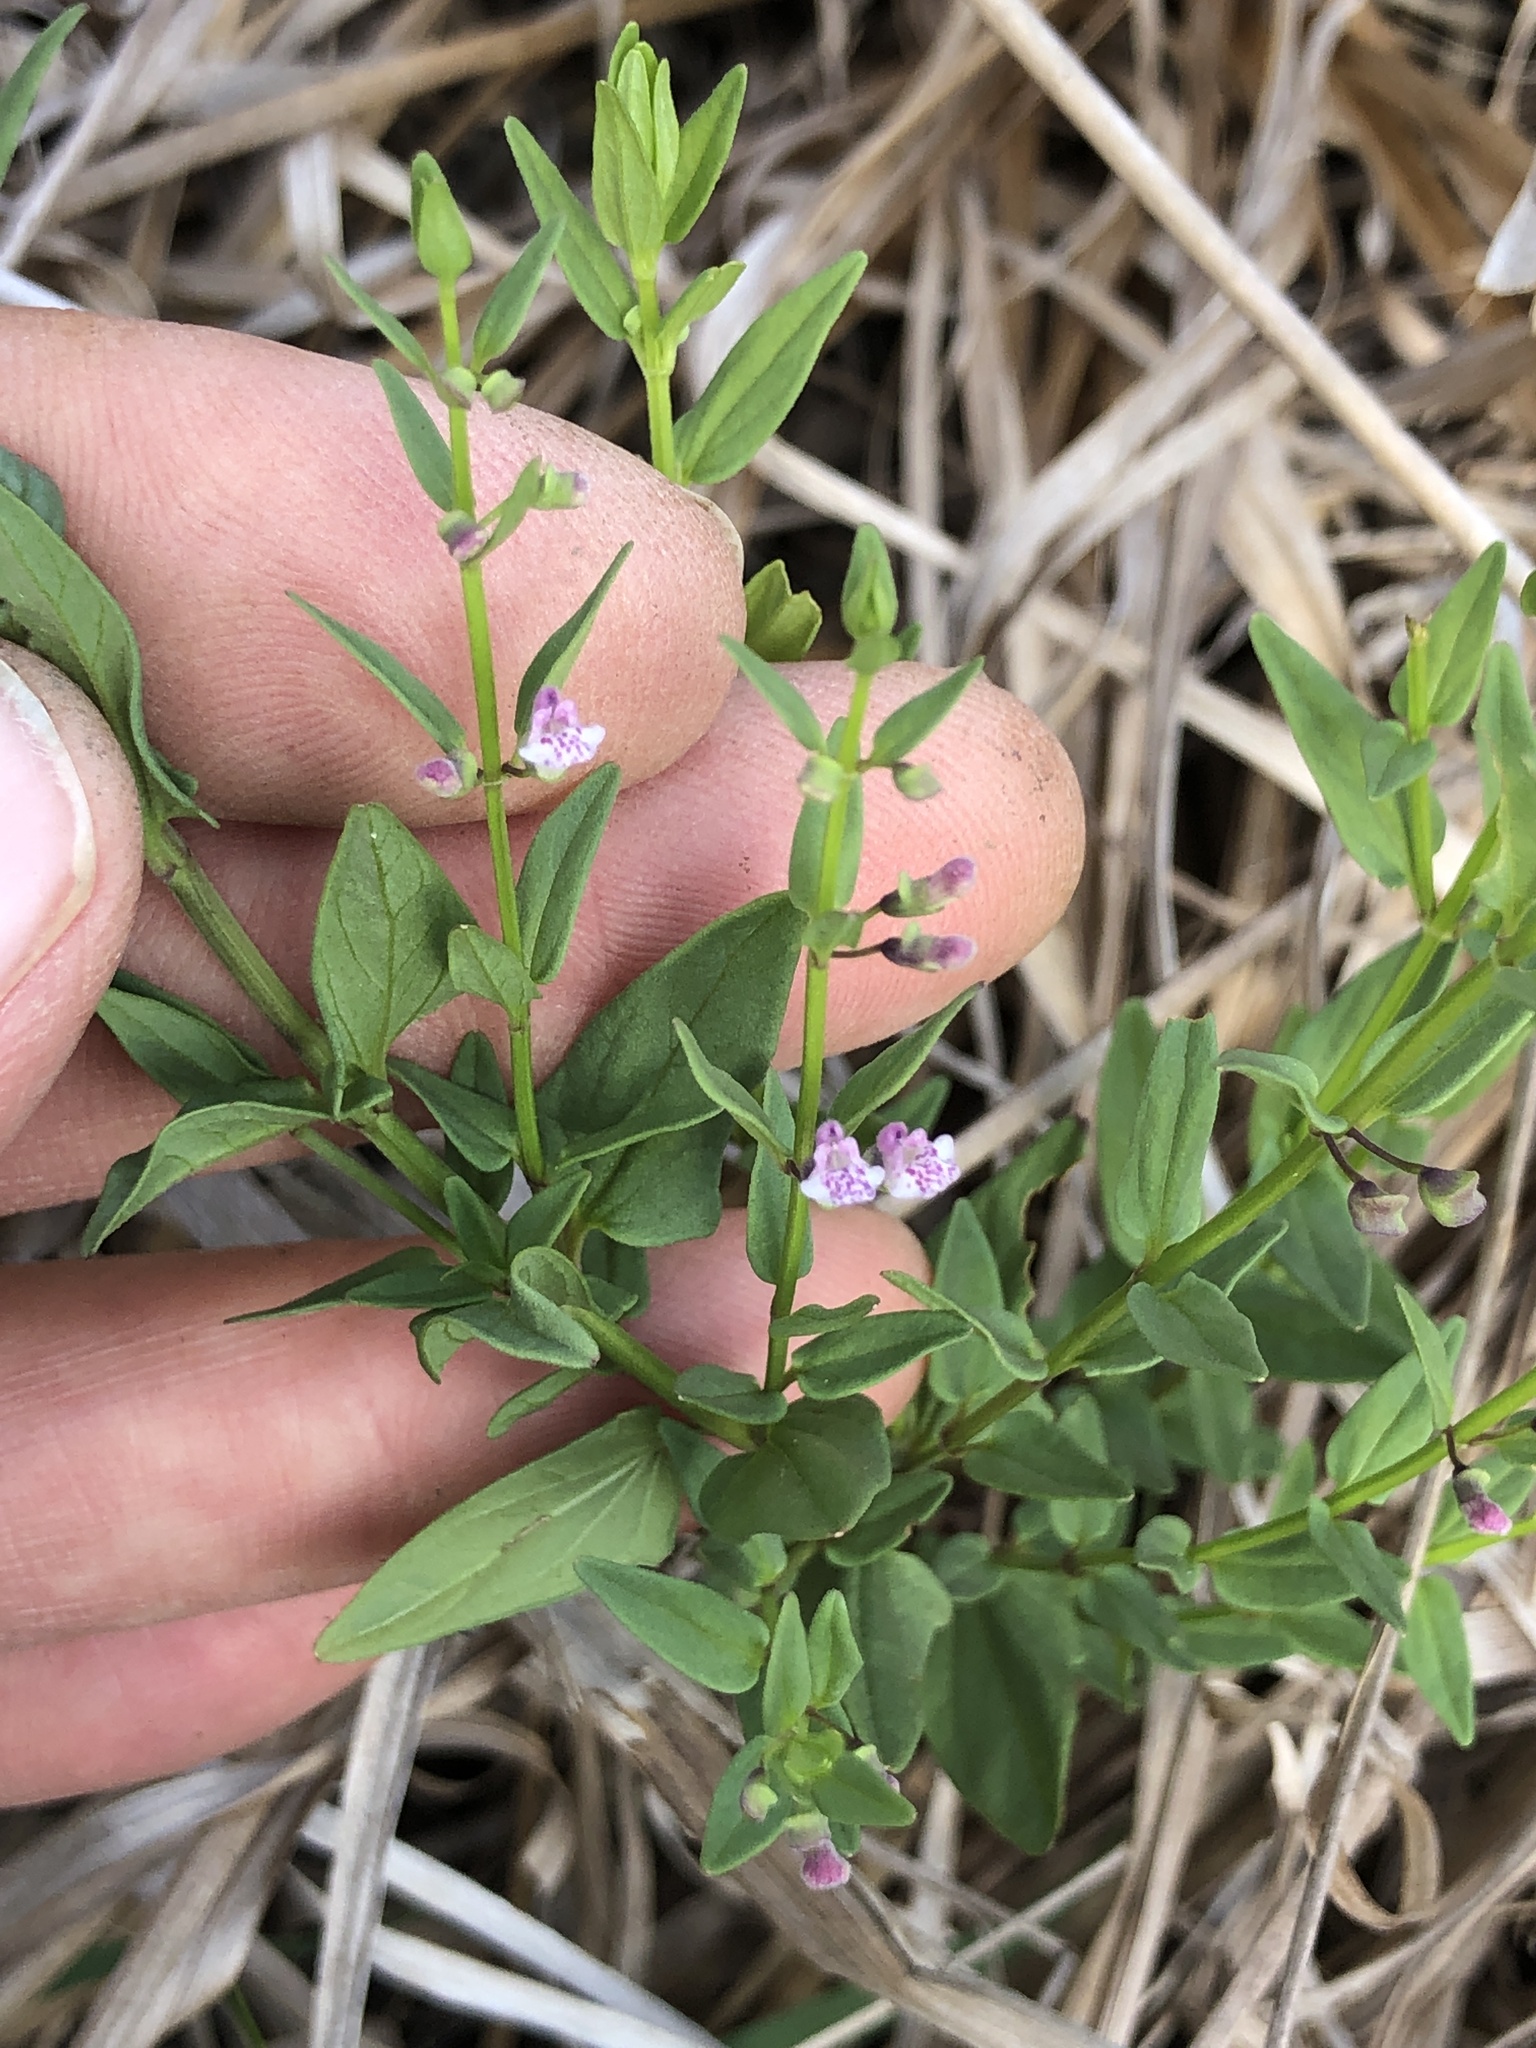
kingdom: Plantae
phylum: Tracheophyta
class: Magnoliopsida
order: Lamiales
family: Lamiaceae
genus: Scutellaria
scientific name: Scutellaria racemosa
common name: South american skullcap
